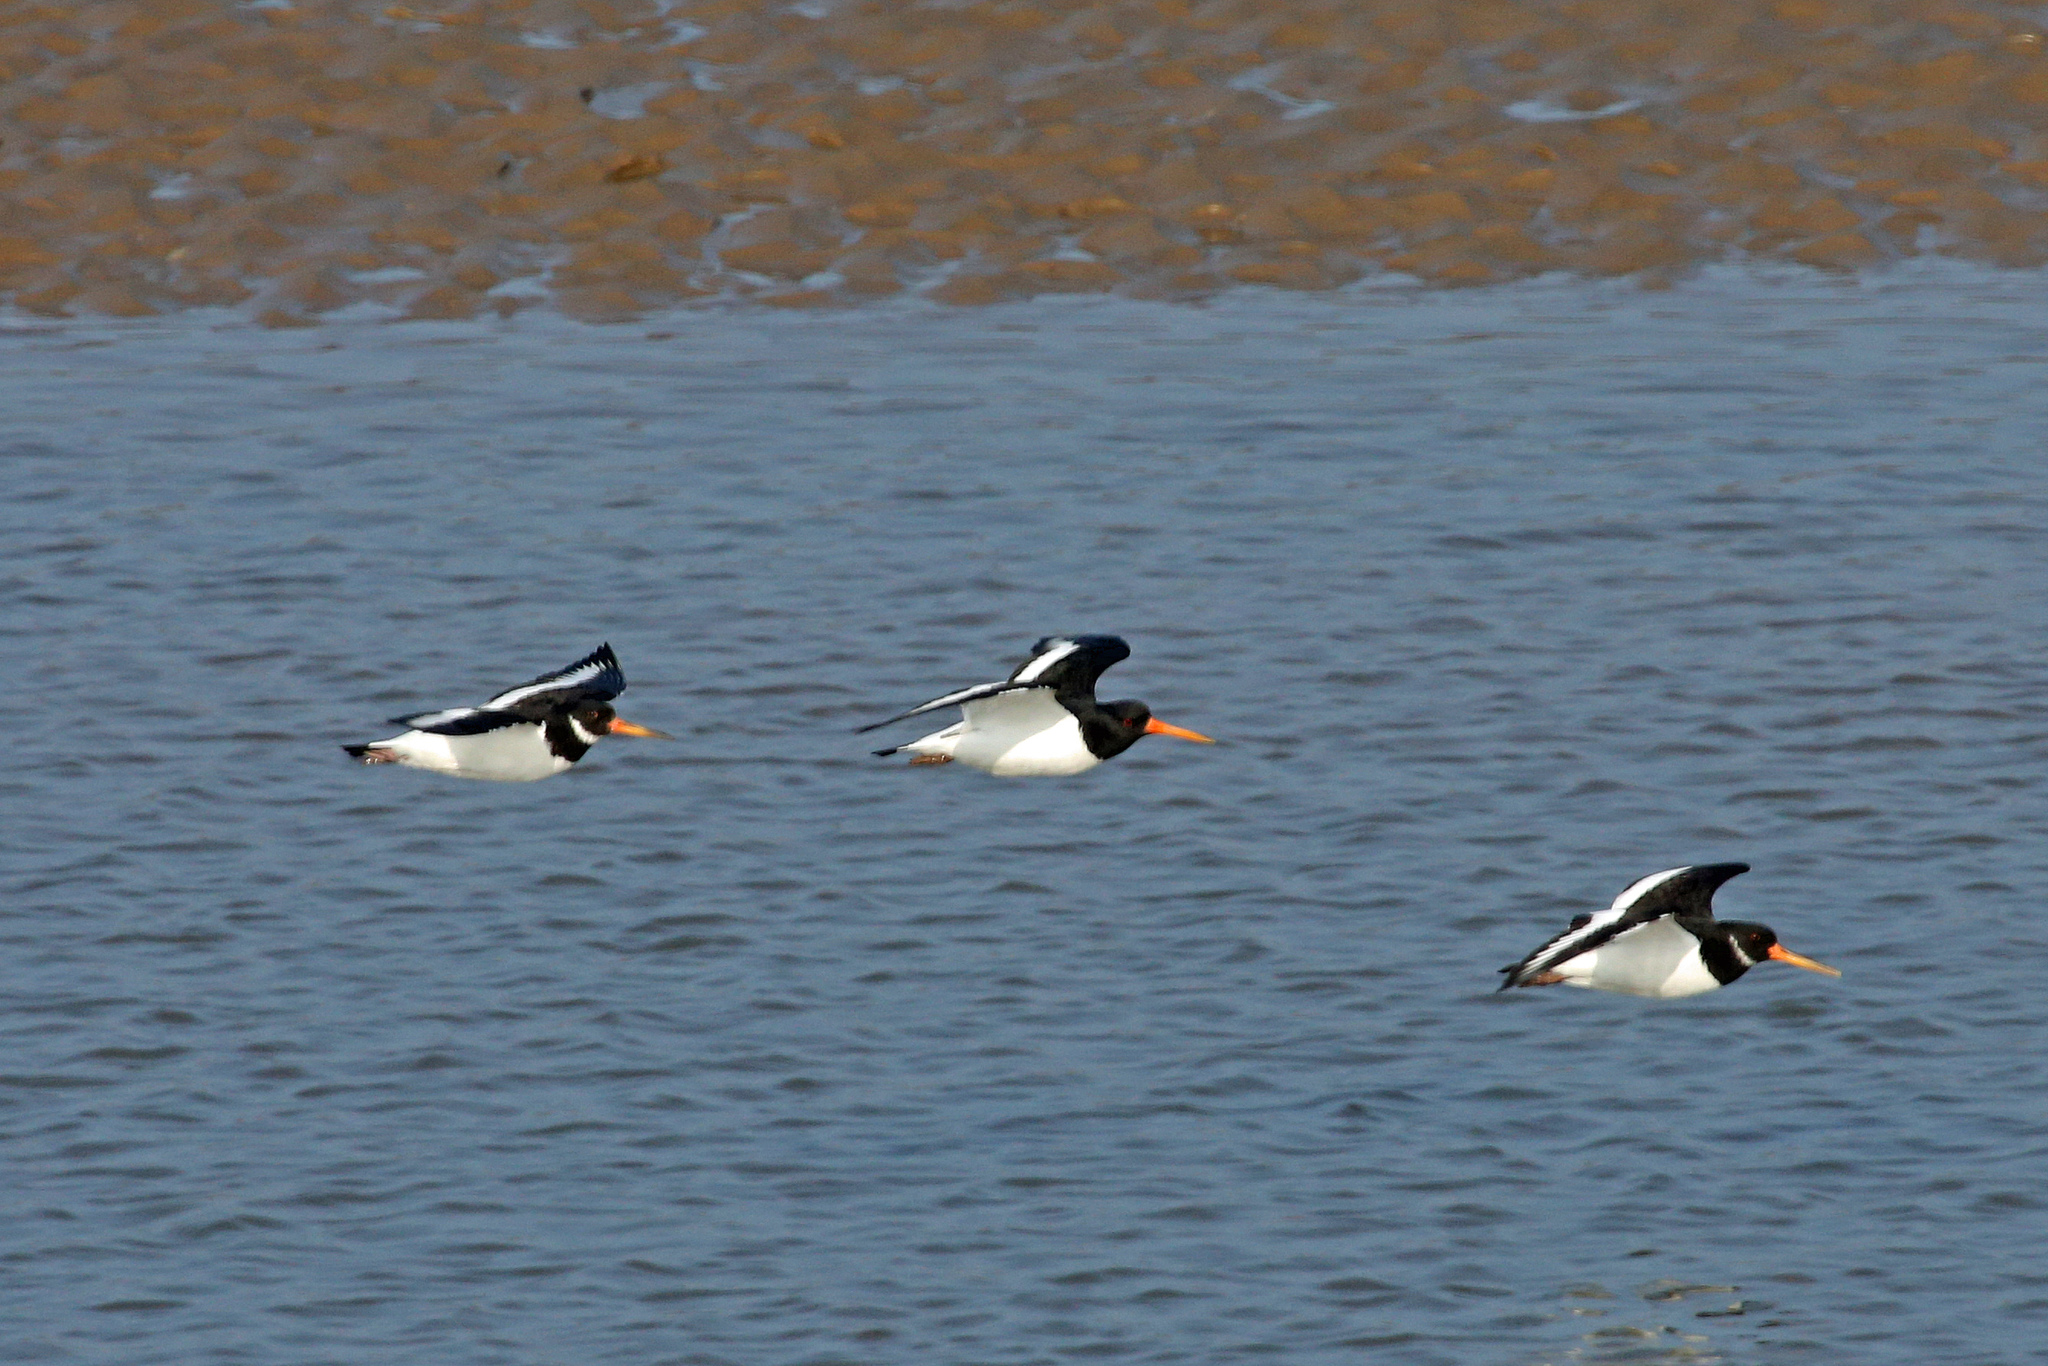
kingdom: Animalia
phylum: Chordata
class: Aves
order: Charadriiformes
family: Haematopodidae
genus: Haematopus
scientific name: Haematopus ostralegus
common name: Eurasian oystercatcher
